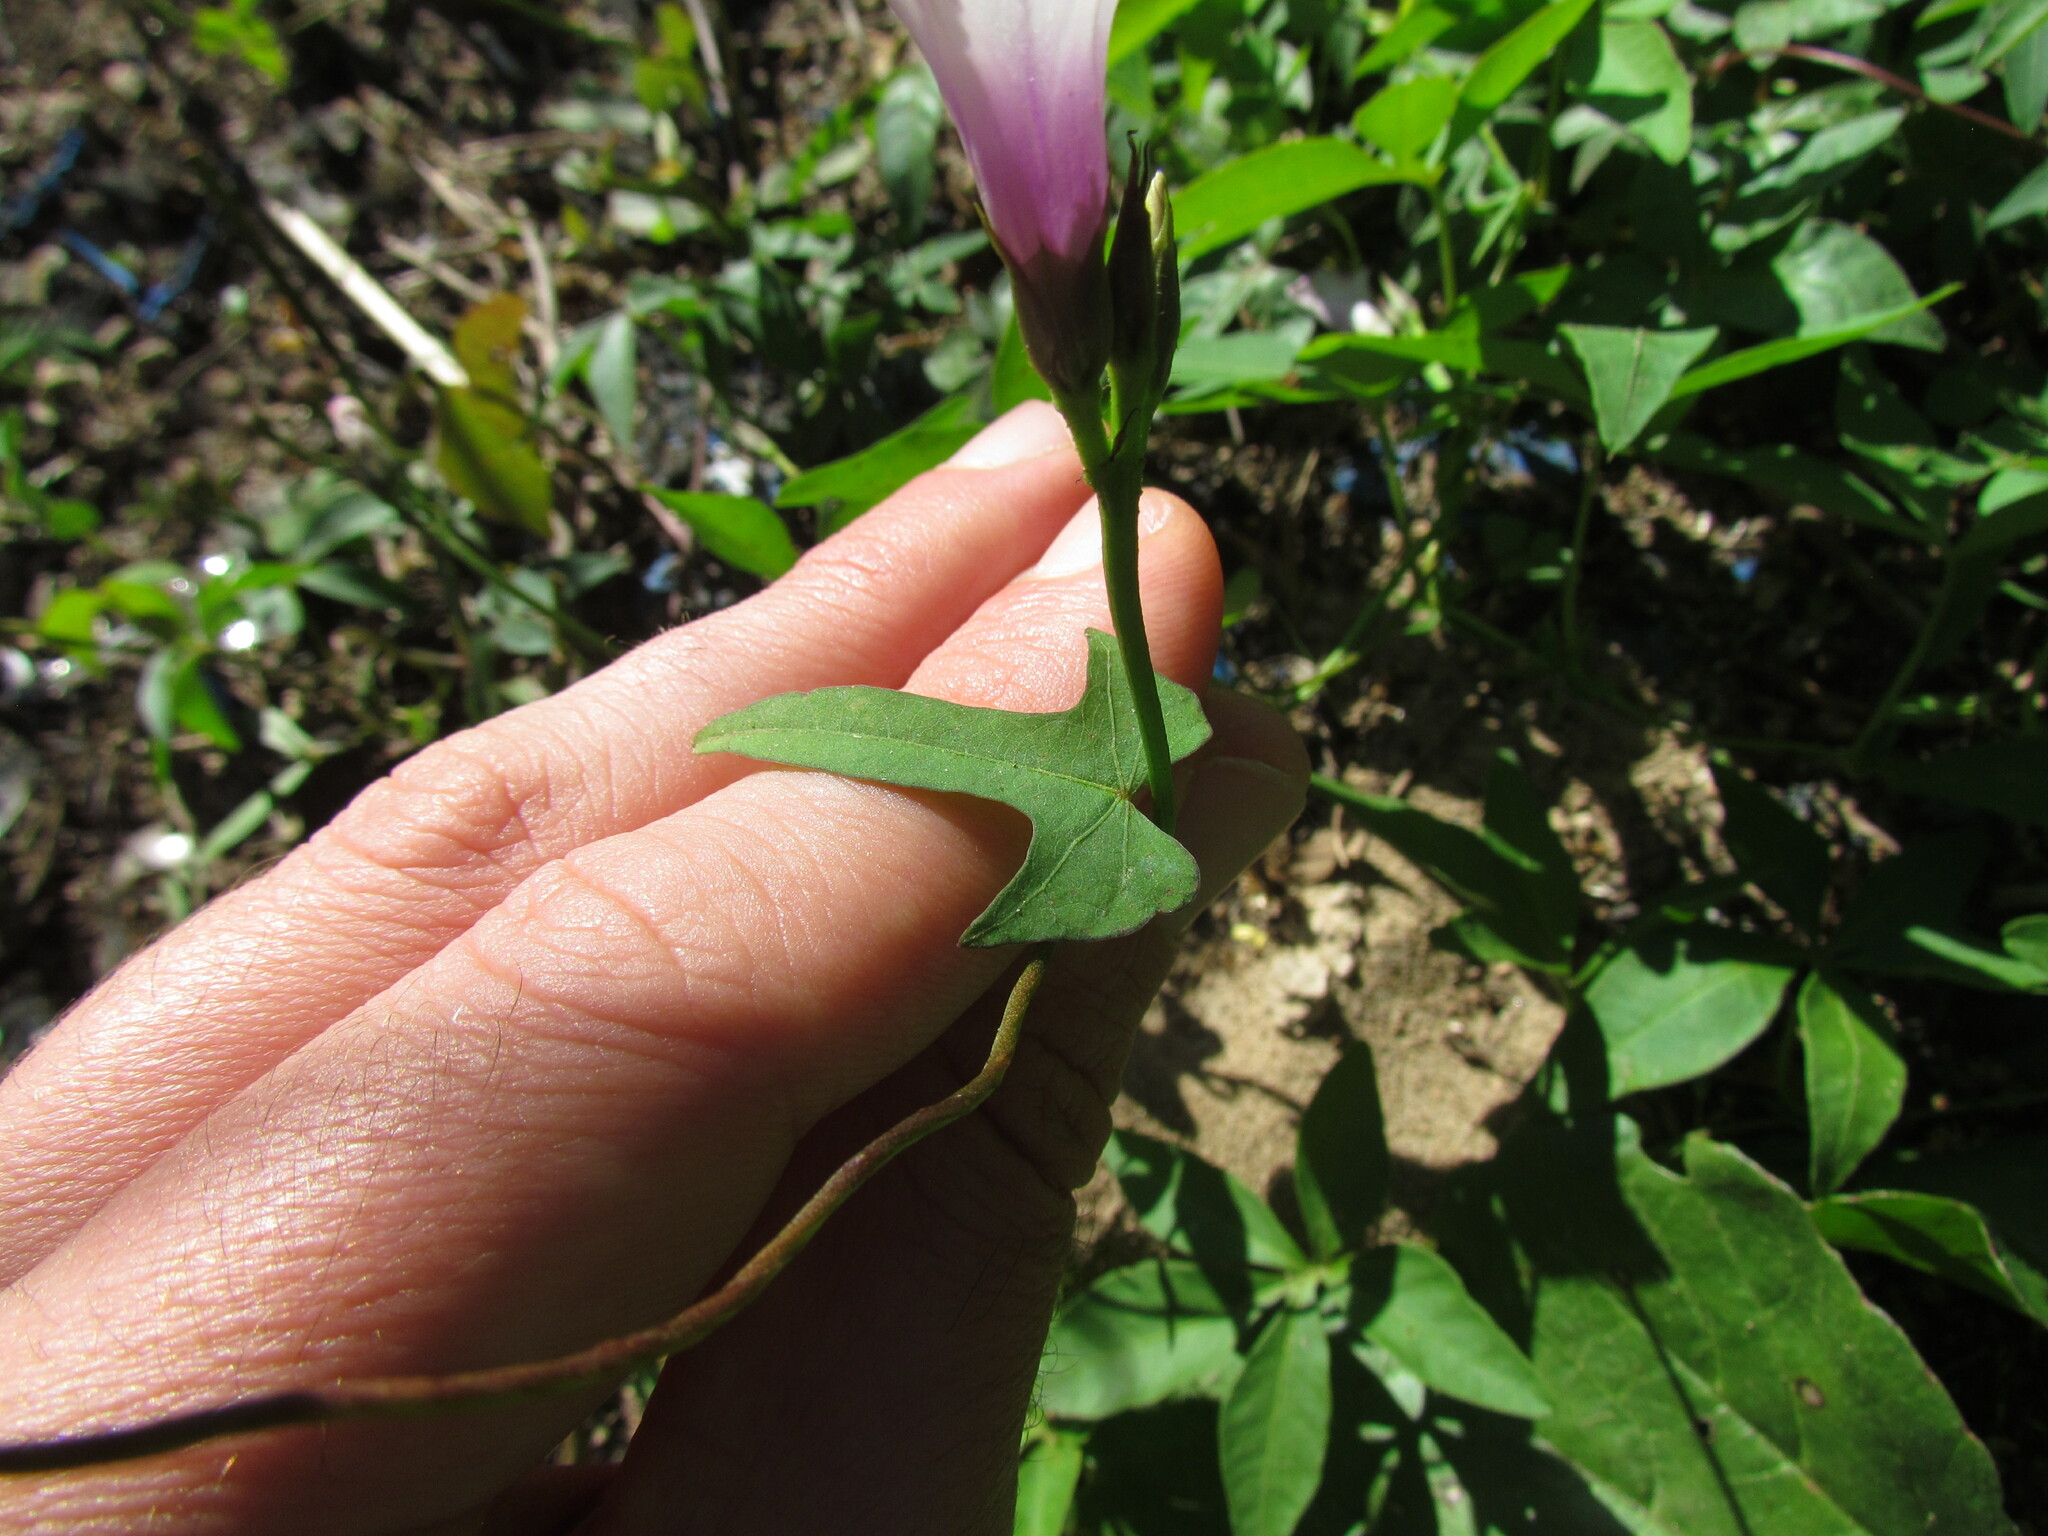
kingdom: Plantae
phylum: Tracheophyta
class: Magnoliopsida
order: Solanales
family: Convolvulaceae
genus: Ipomoea
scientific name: Ipomoea grandifolia
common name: Aiea morning glory
